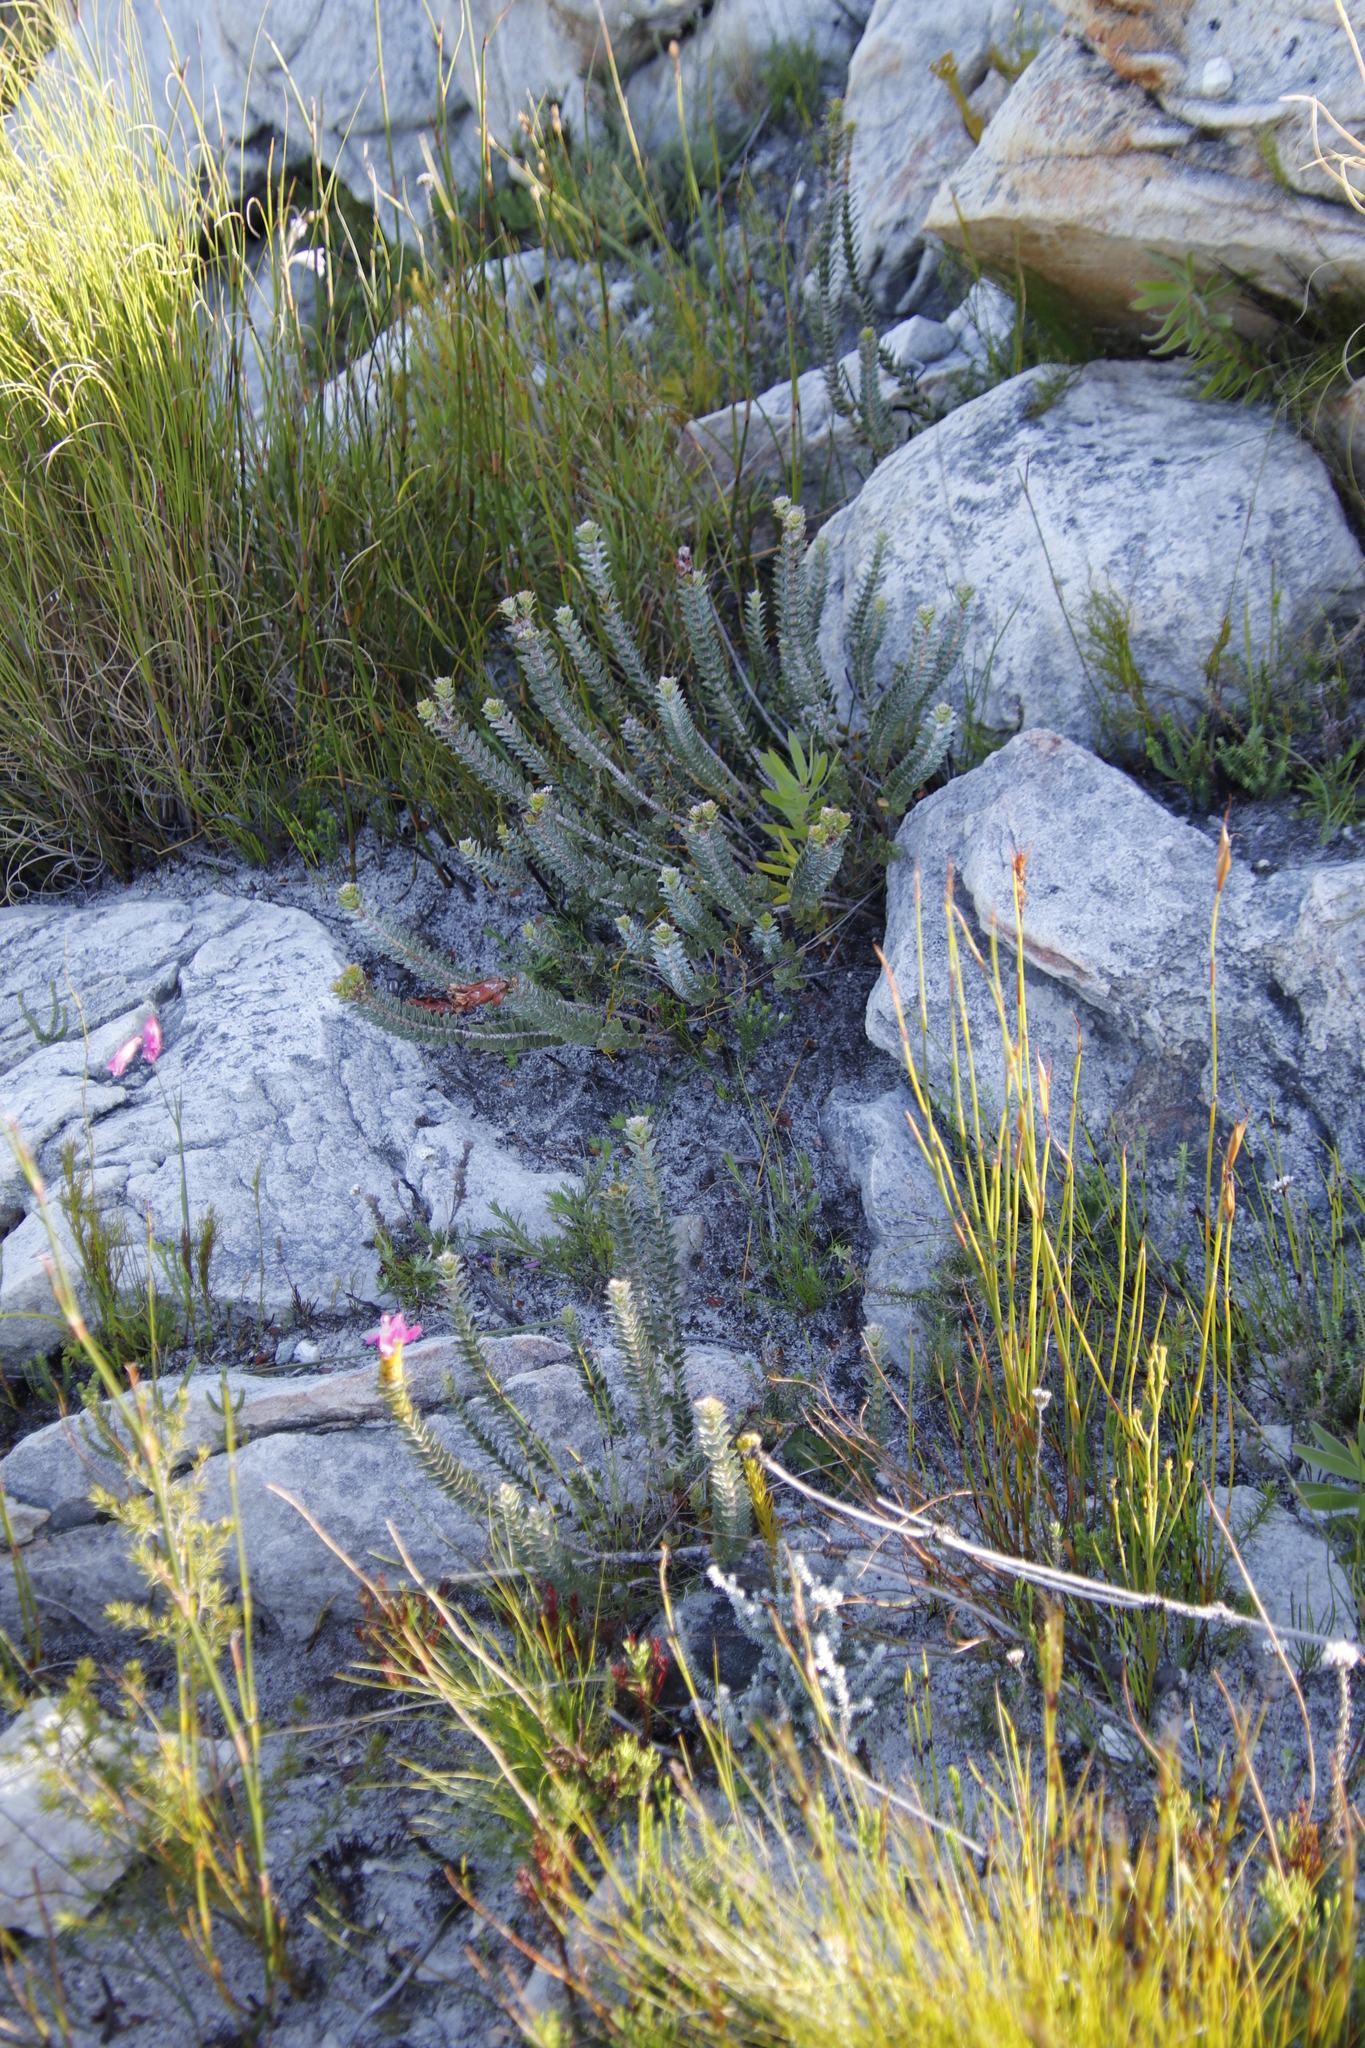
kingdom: Plantae
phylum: Tracheophyta
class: Magnoliopsida
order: Myrtales
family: Penaeaceae
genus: Saltera
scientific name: Saltera sarcocolla
